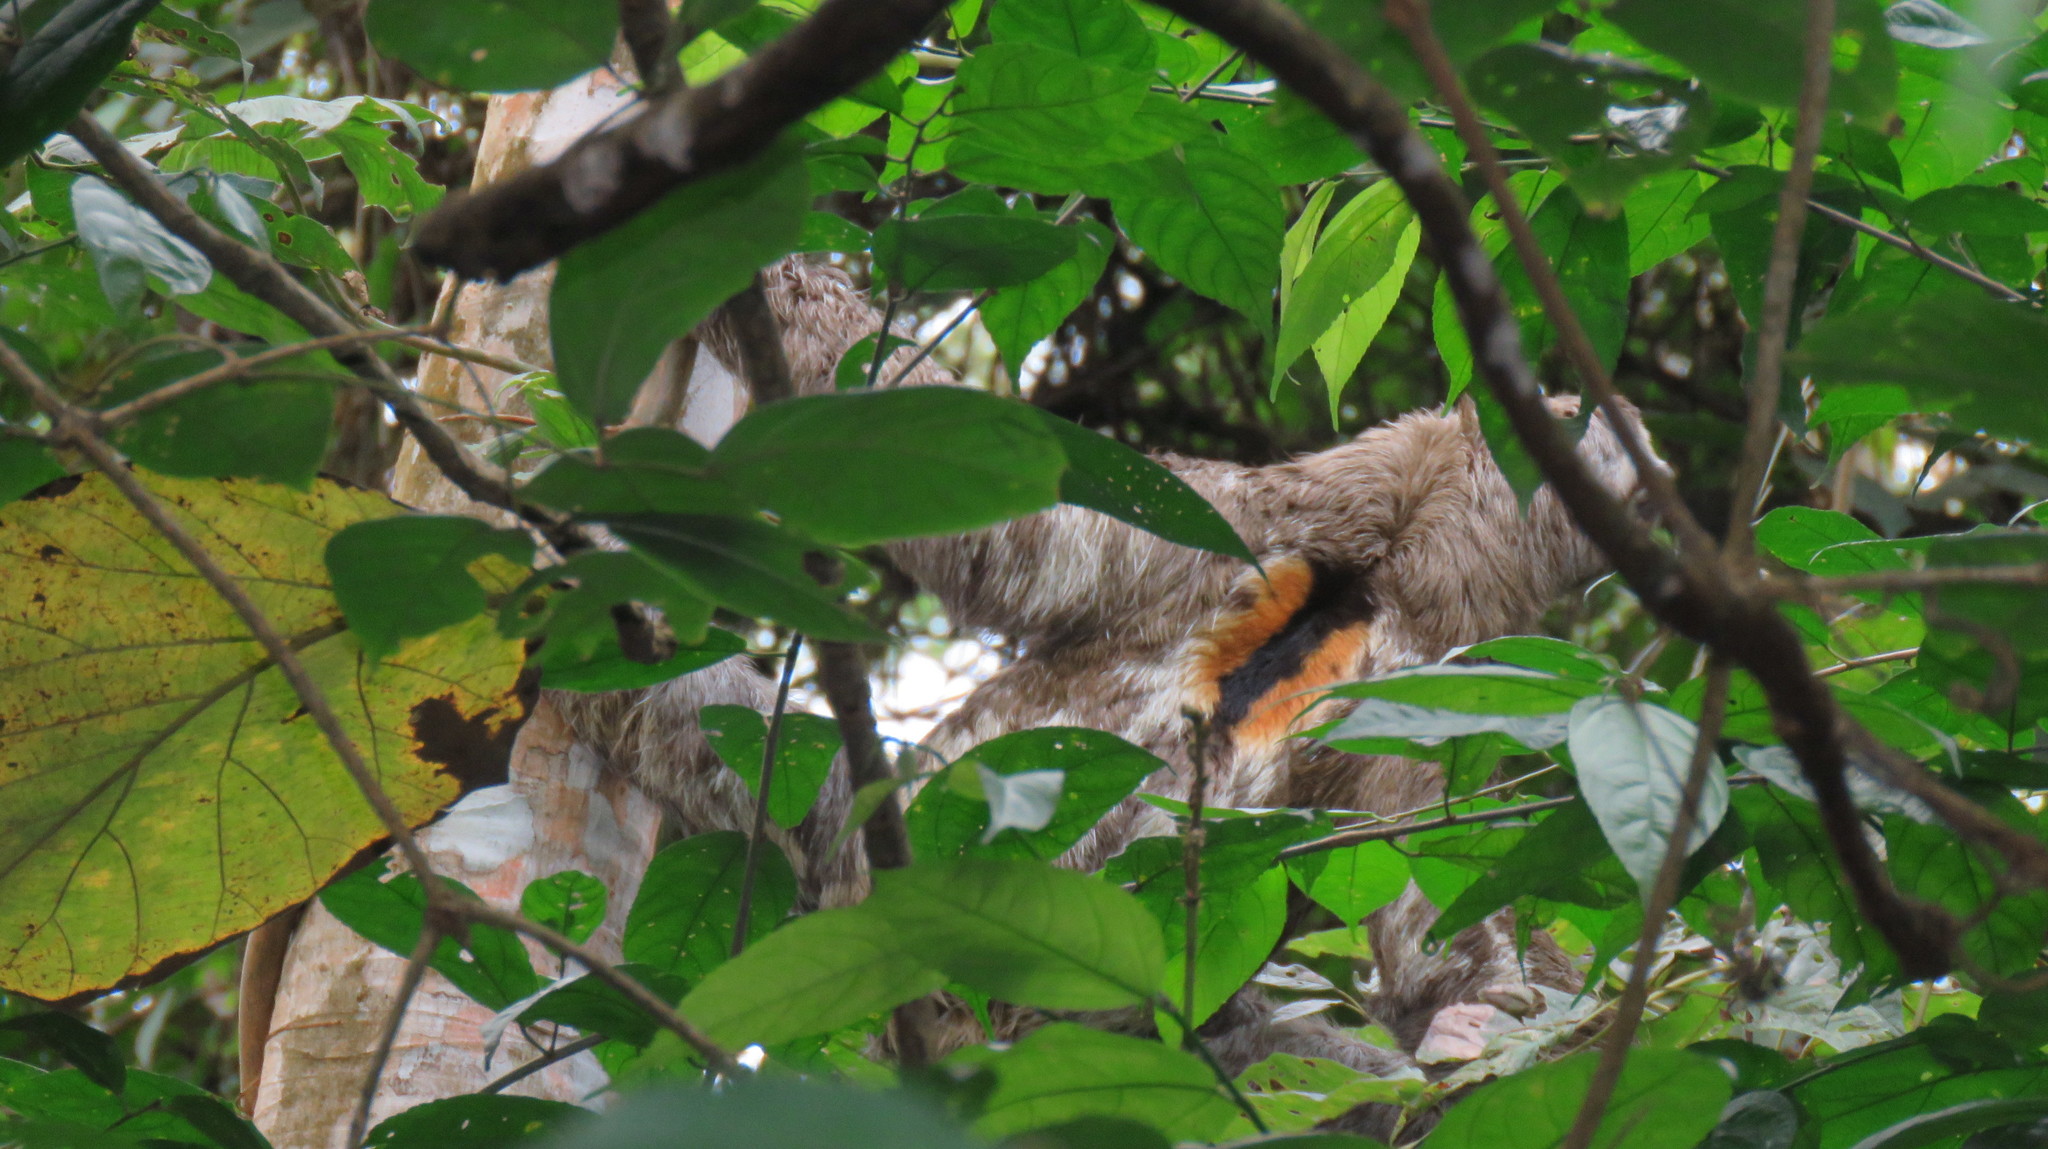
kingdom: Animalia
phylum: Chordata
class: Mammalia
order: Pilosa
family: Bradypodidae
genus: Bradypus
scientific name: Bradypus variegatus
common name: Brown-throated three-toed sloth
